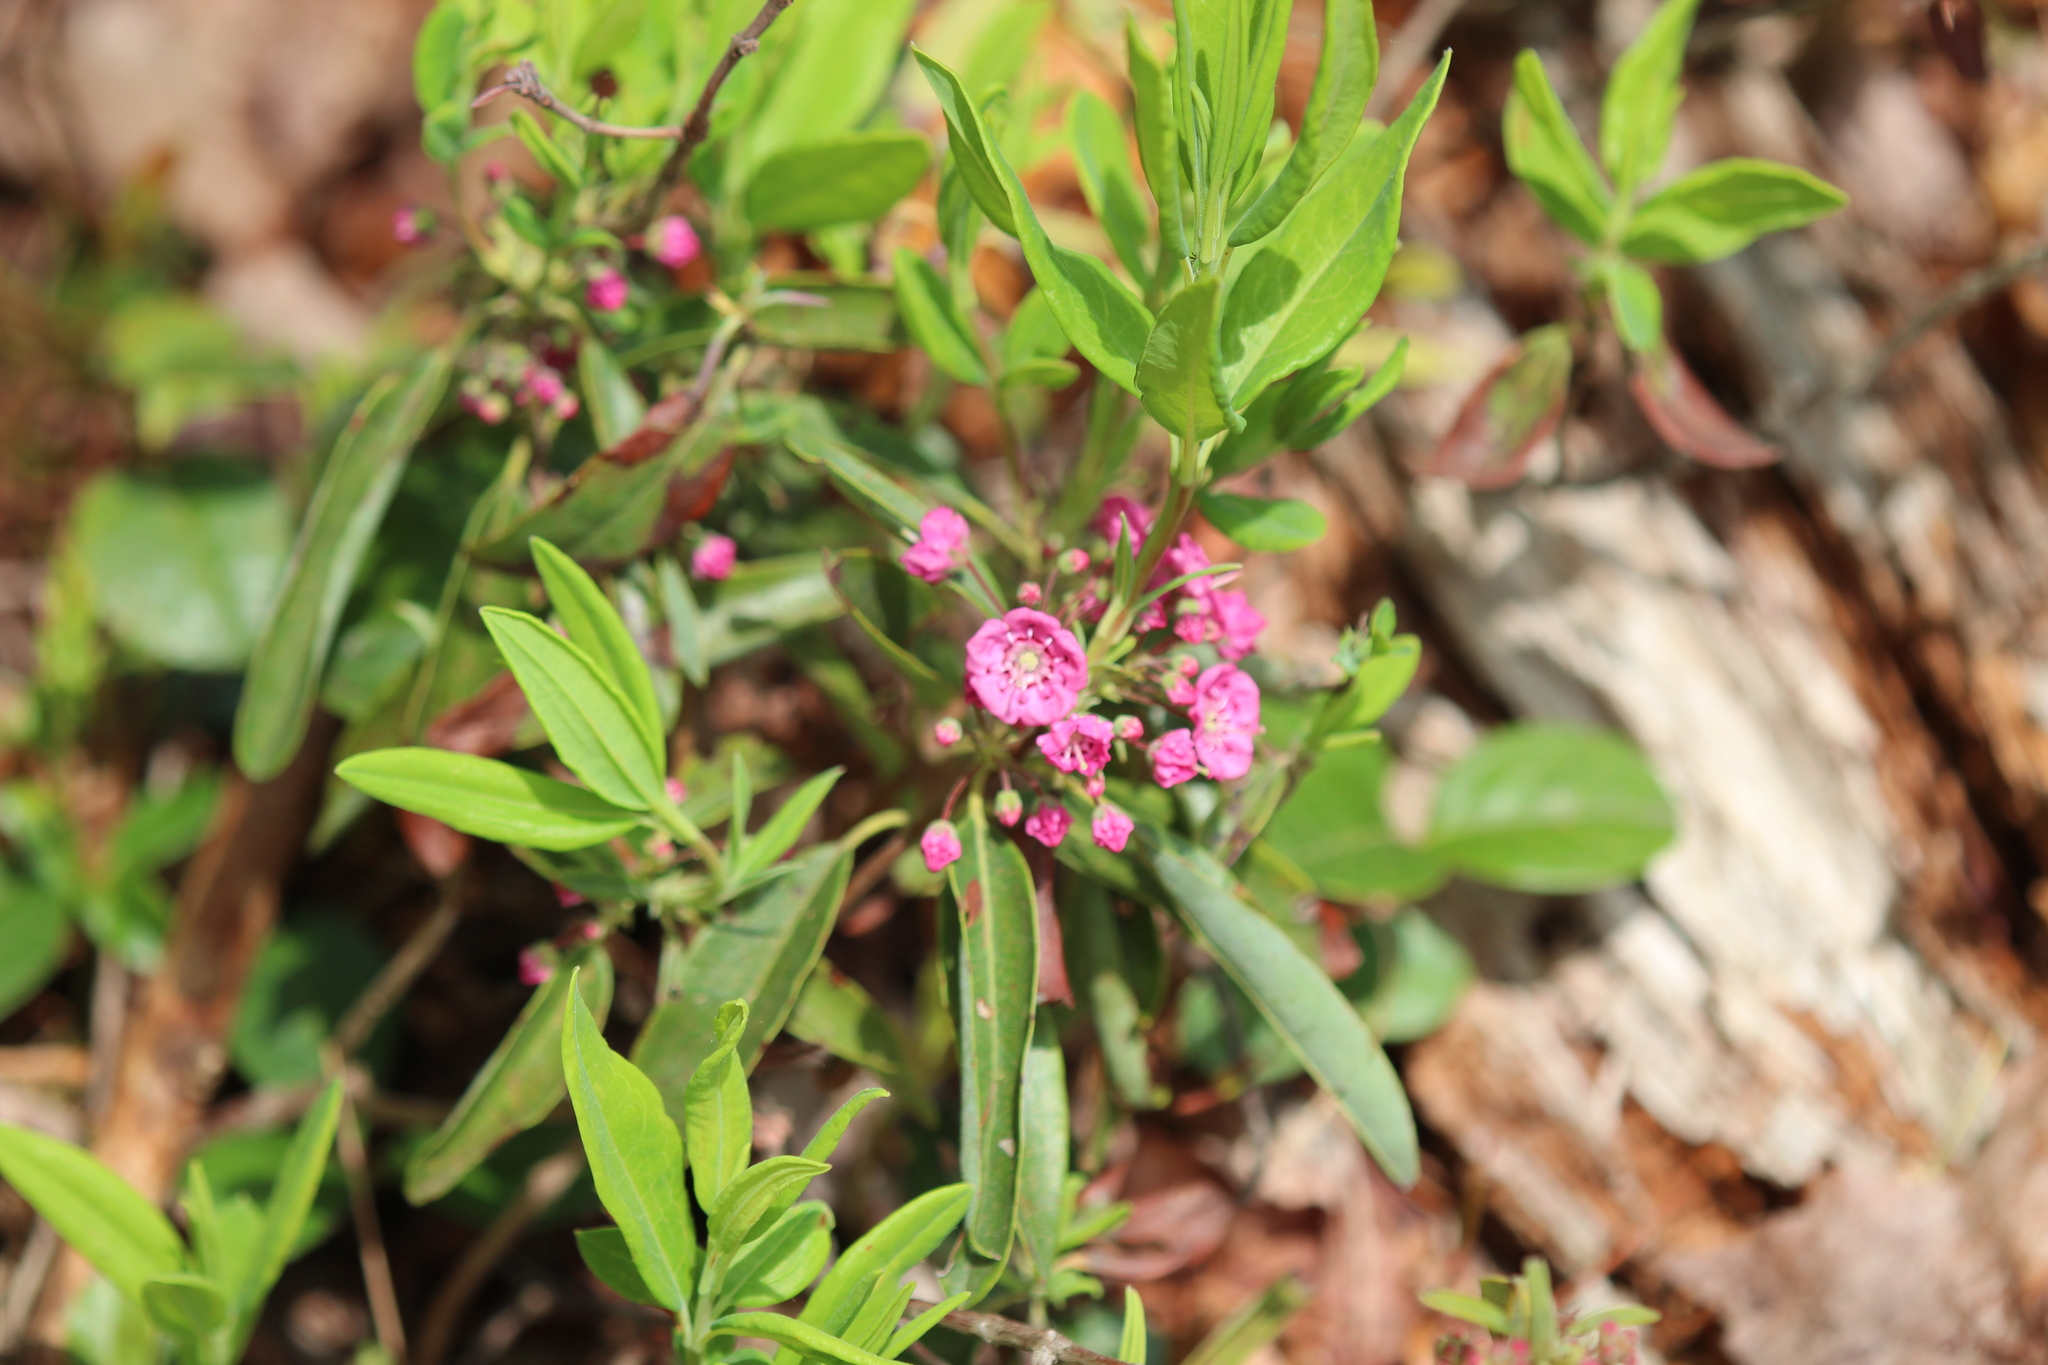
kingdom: Plantae
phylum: Tracheophyta
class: Magnoliopsida
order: Ericales
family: Ericaceae
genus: Kalmia
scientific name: Kalmia angustifolia
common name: Sheep-laurel
